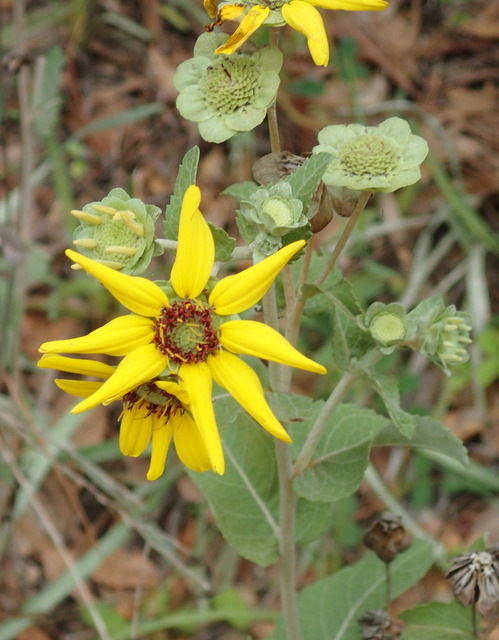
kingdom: Plantae
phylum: Tracheophyta
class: Magnoliopsida
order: Asterales
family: Asteraceae
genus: Berlandiera
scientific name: Berlandiera pumila
